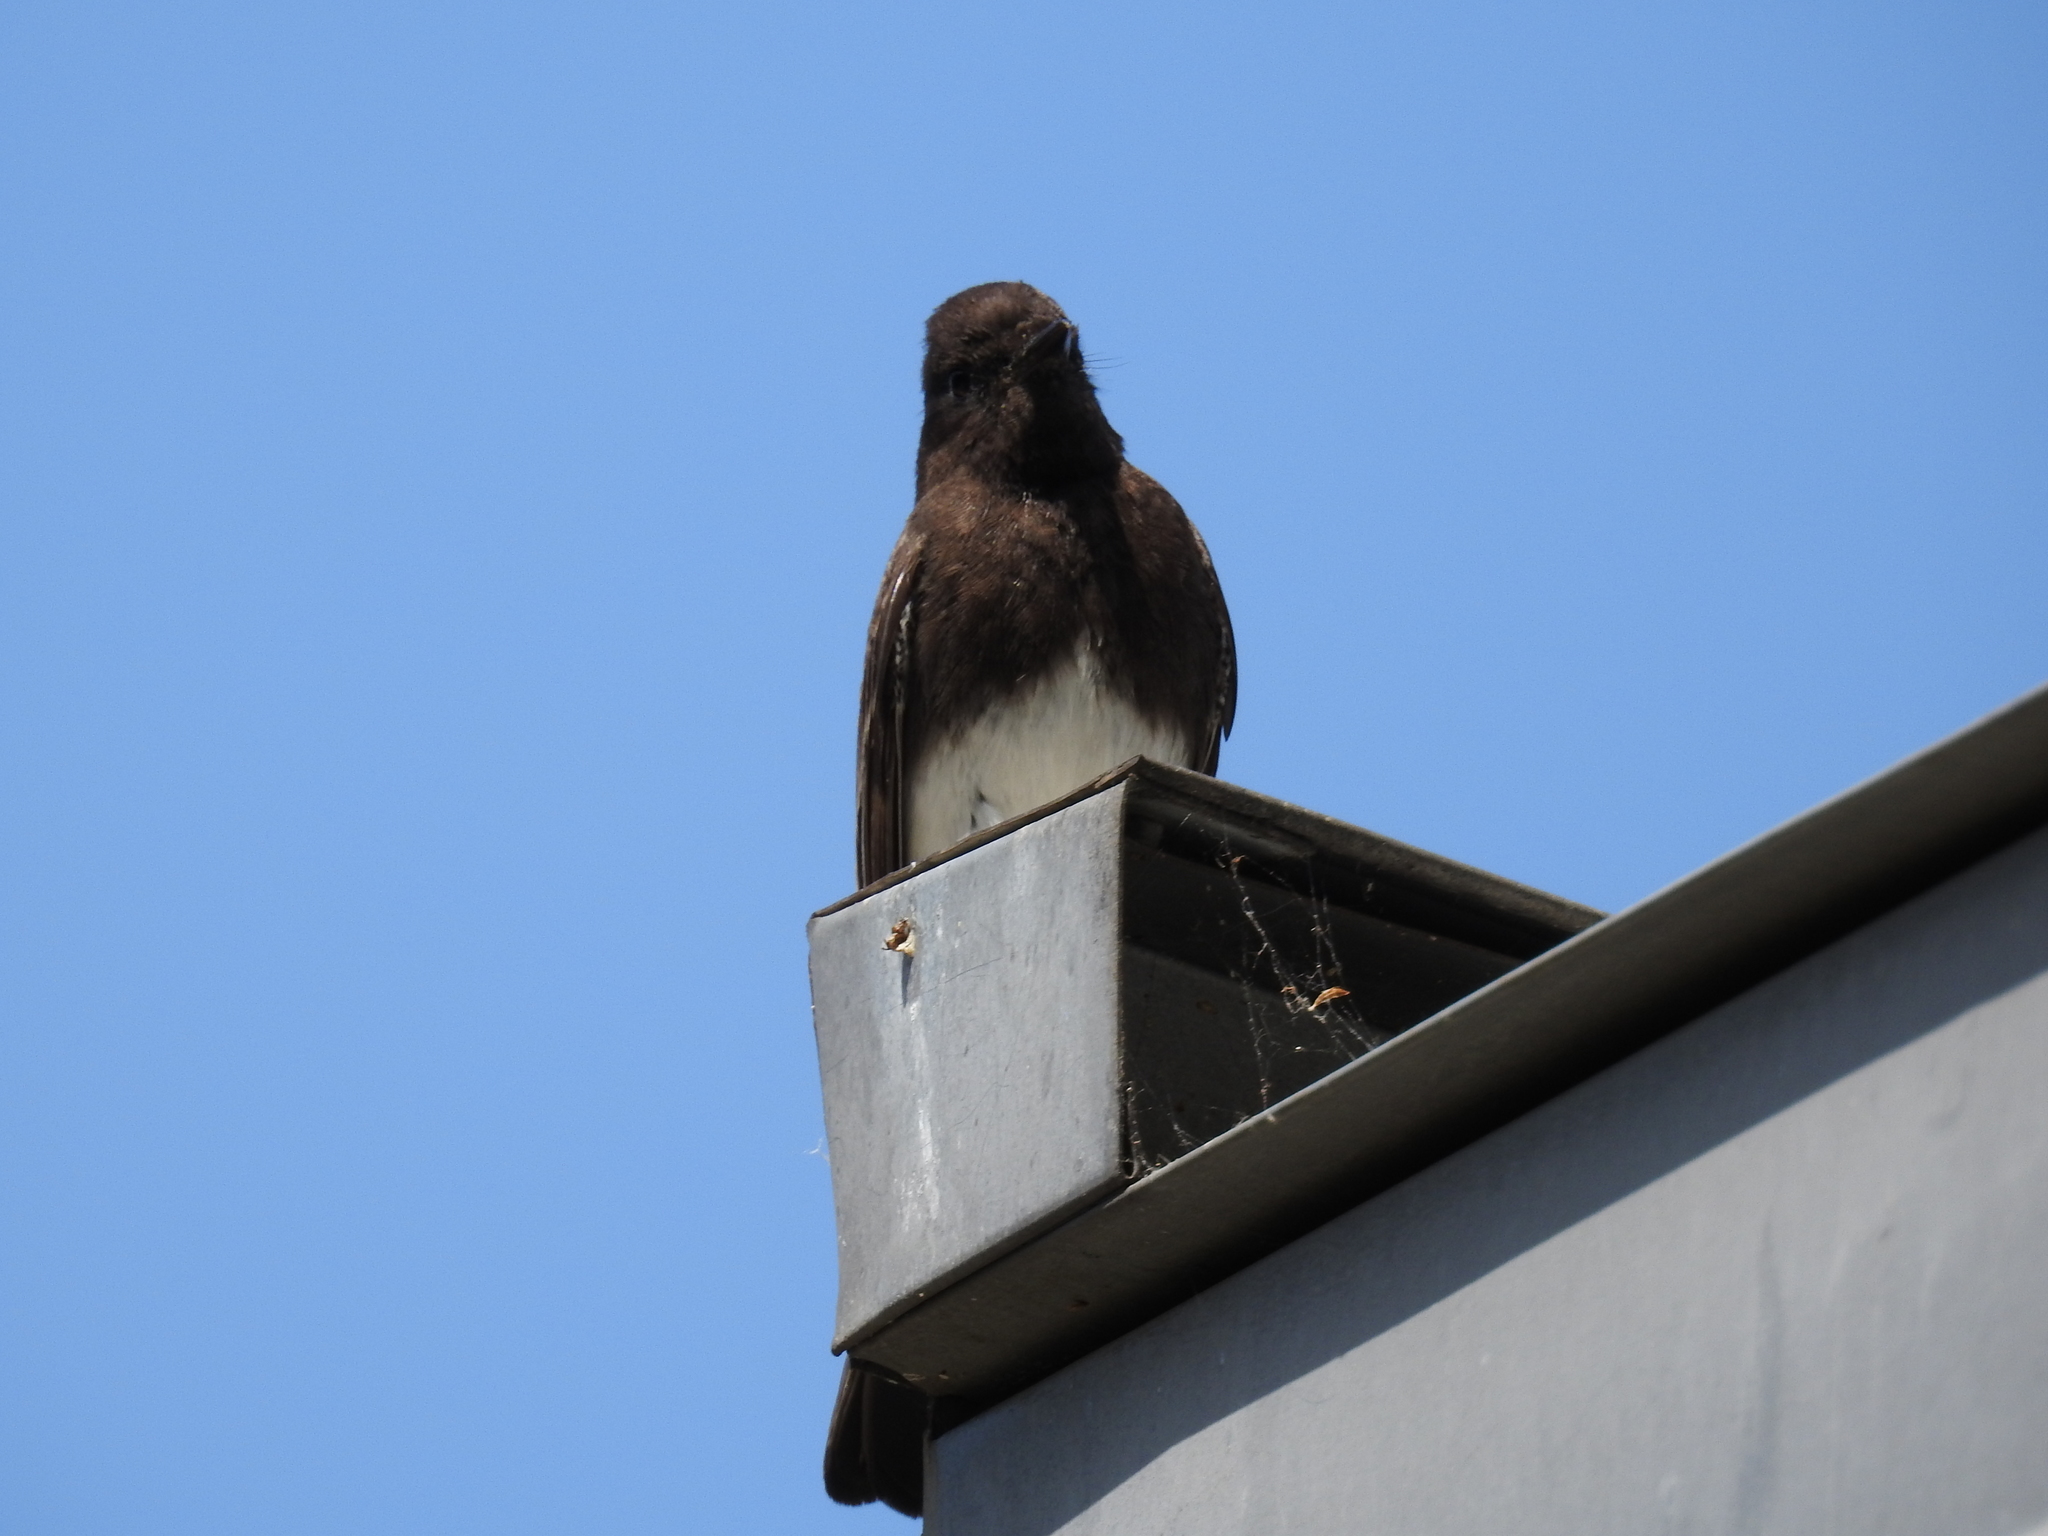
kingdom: Animalia
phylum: Chordata
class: Aves
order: Passeriformes
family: Tyrannidae
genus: Sayornis
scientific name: Sayornis nigricans
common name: Black phoebe
